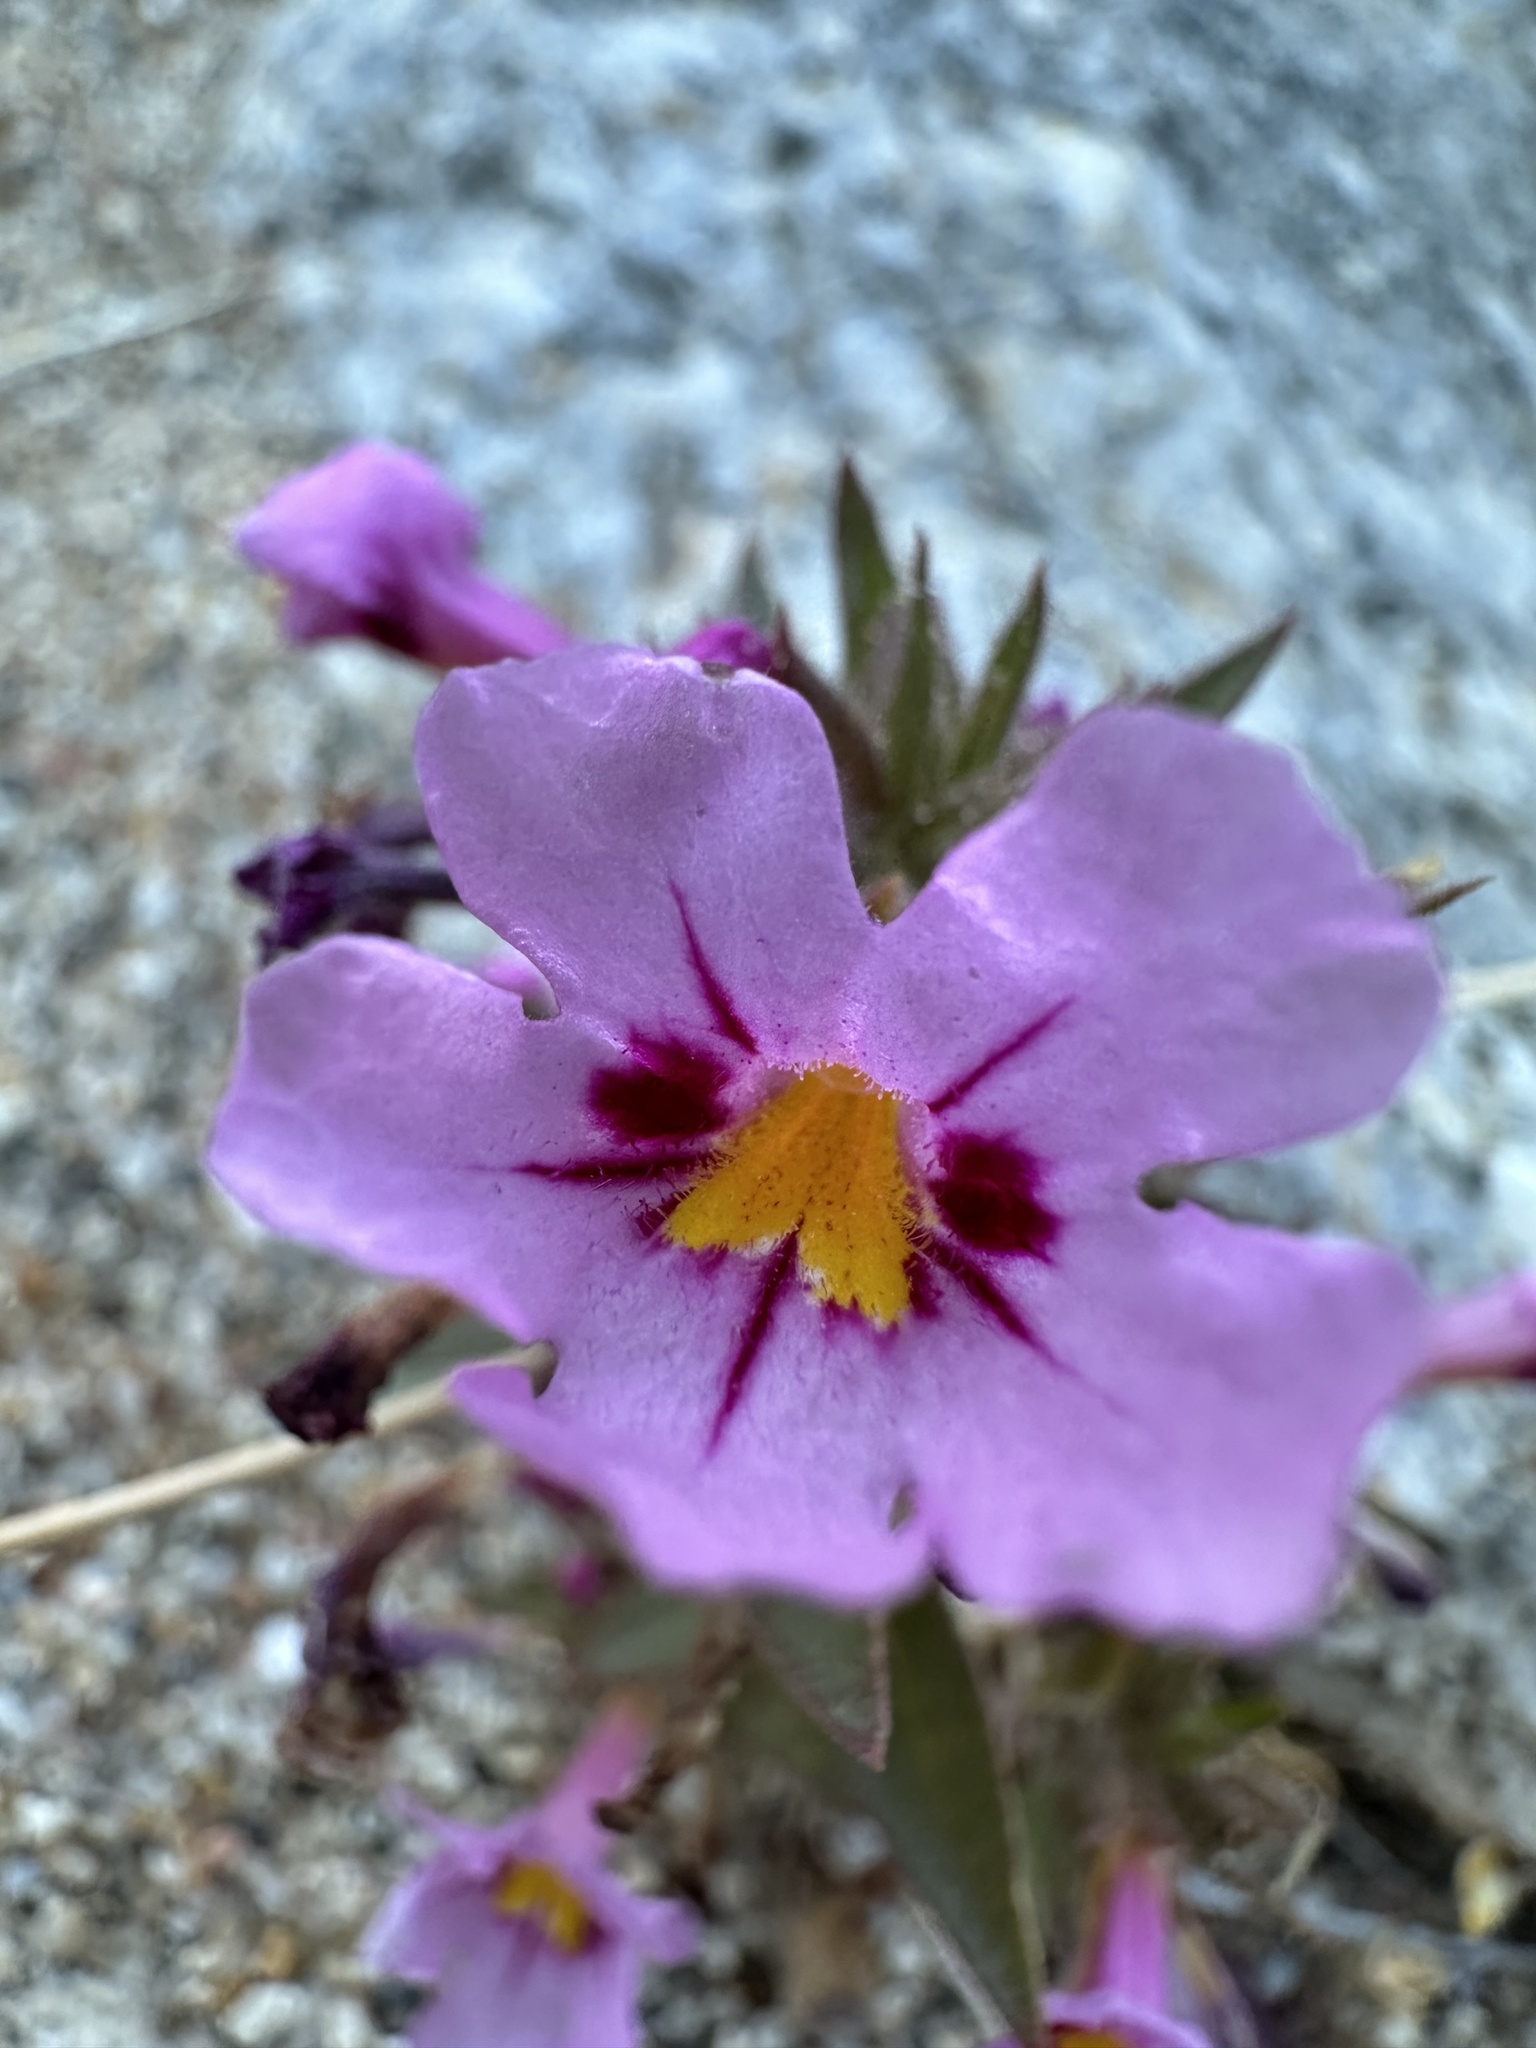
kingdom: Plantae
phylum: Tracheophyta
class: Magnoliopsida
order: Lamiales
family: Phrymaceae
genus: Diplacus
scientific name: Diplacus bigelovii
